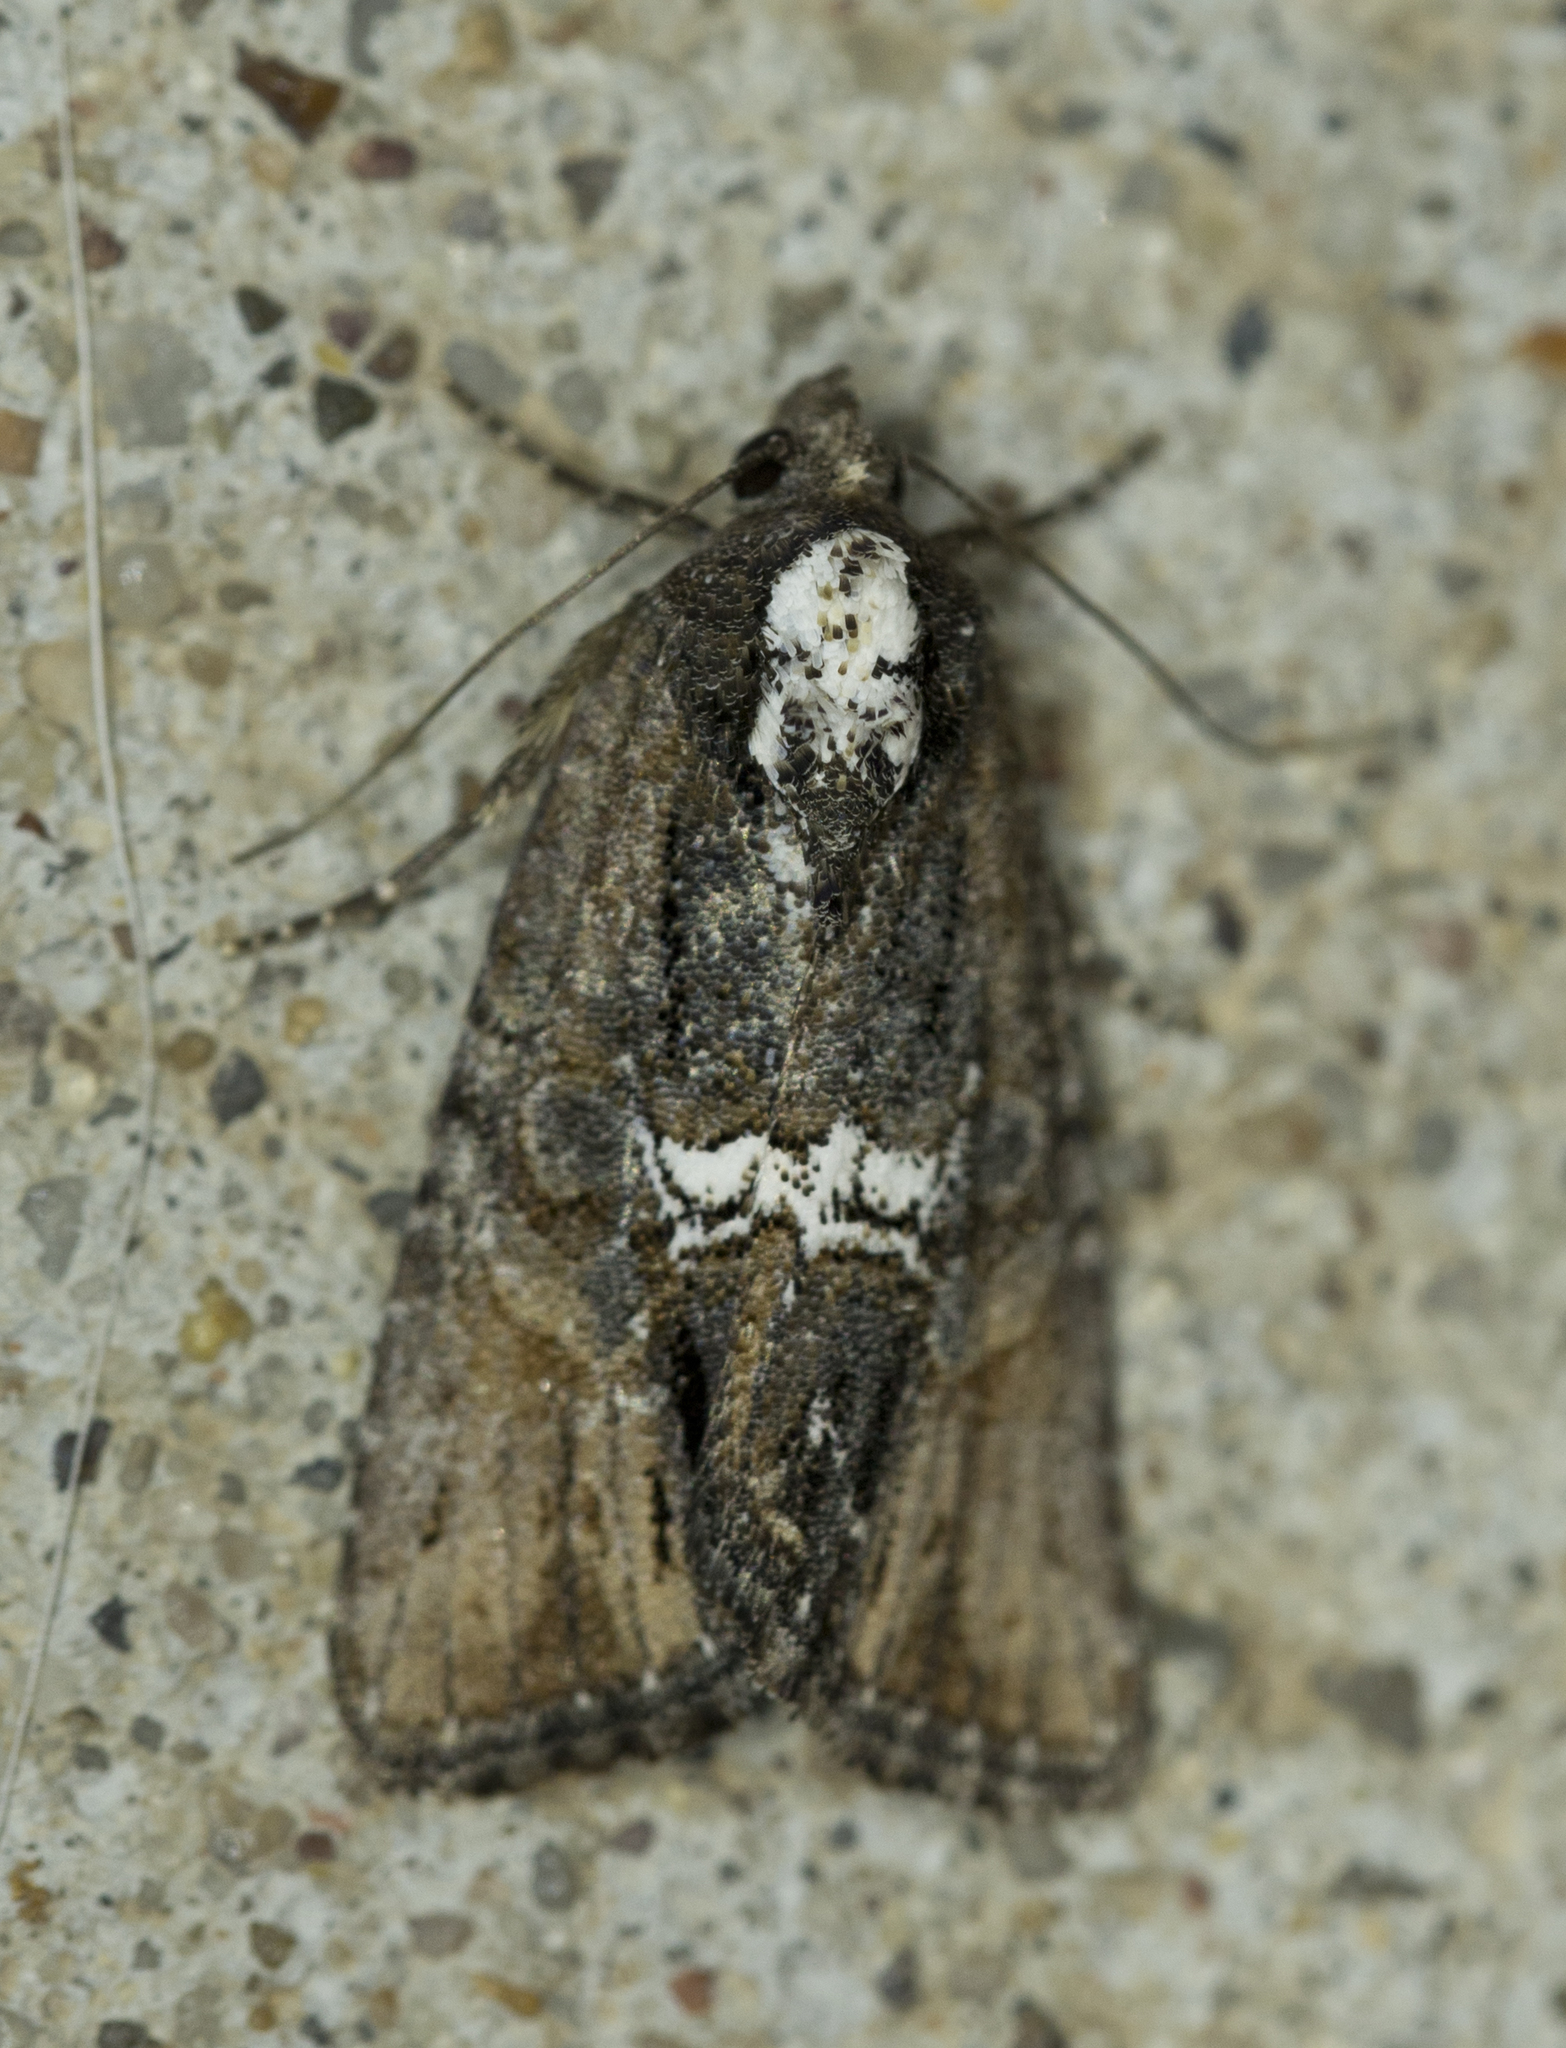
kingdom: Animalia
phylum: Arthropoda
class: Insecta
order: Lepidoptera
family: Noctuidae
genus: Bryolymnia
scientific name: Bryolymnia semifascia
